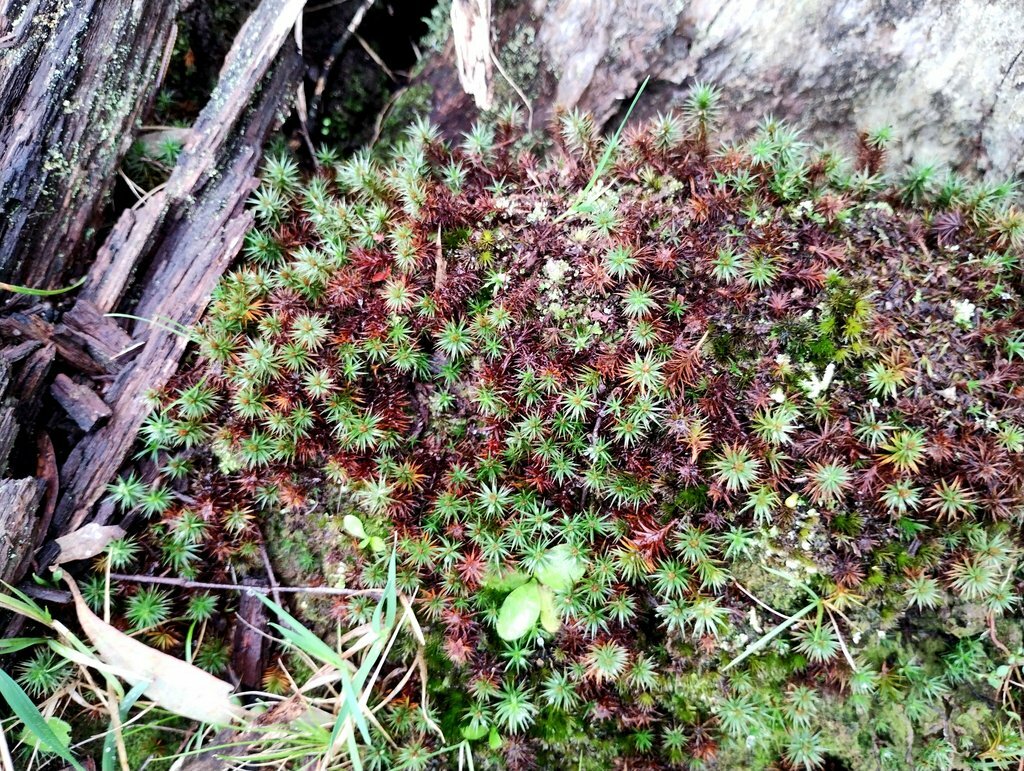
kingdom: Plantae
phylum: Bryophyta
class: Polytrichopsida
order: Polytrichales
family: Polytrichaceae
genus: Polytrichum
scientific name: Polytrichum juniperinum
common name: Juniper haircap moss
